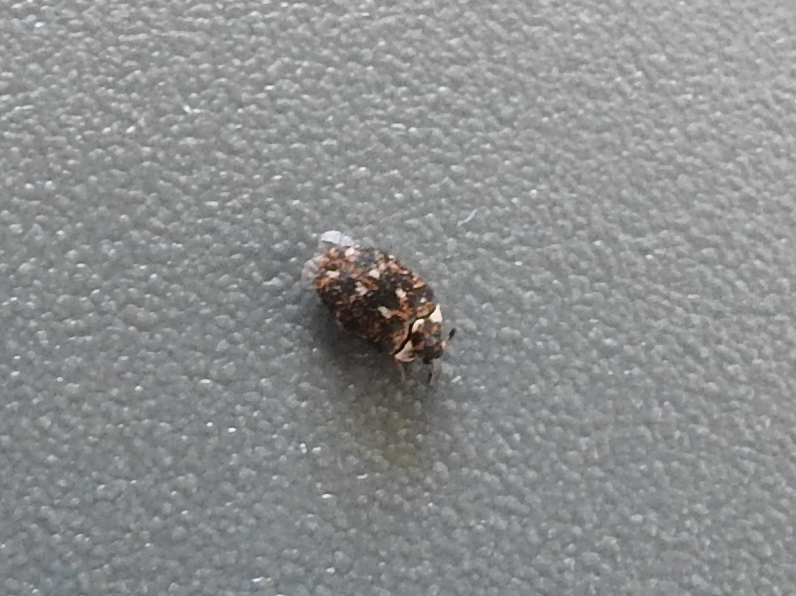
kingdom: Animalia
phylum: Arthropoda
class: Insecta
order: Coleoptera
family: Dermestidae
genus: Anthrenus
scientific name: Anthrenus museorum
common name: Museum beetle
